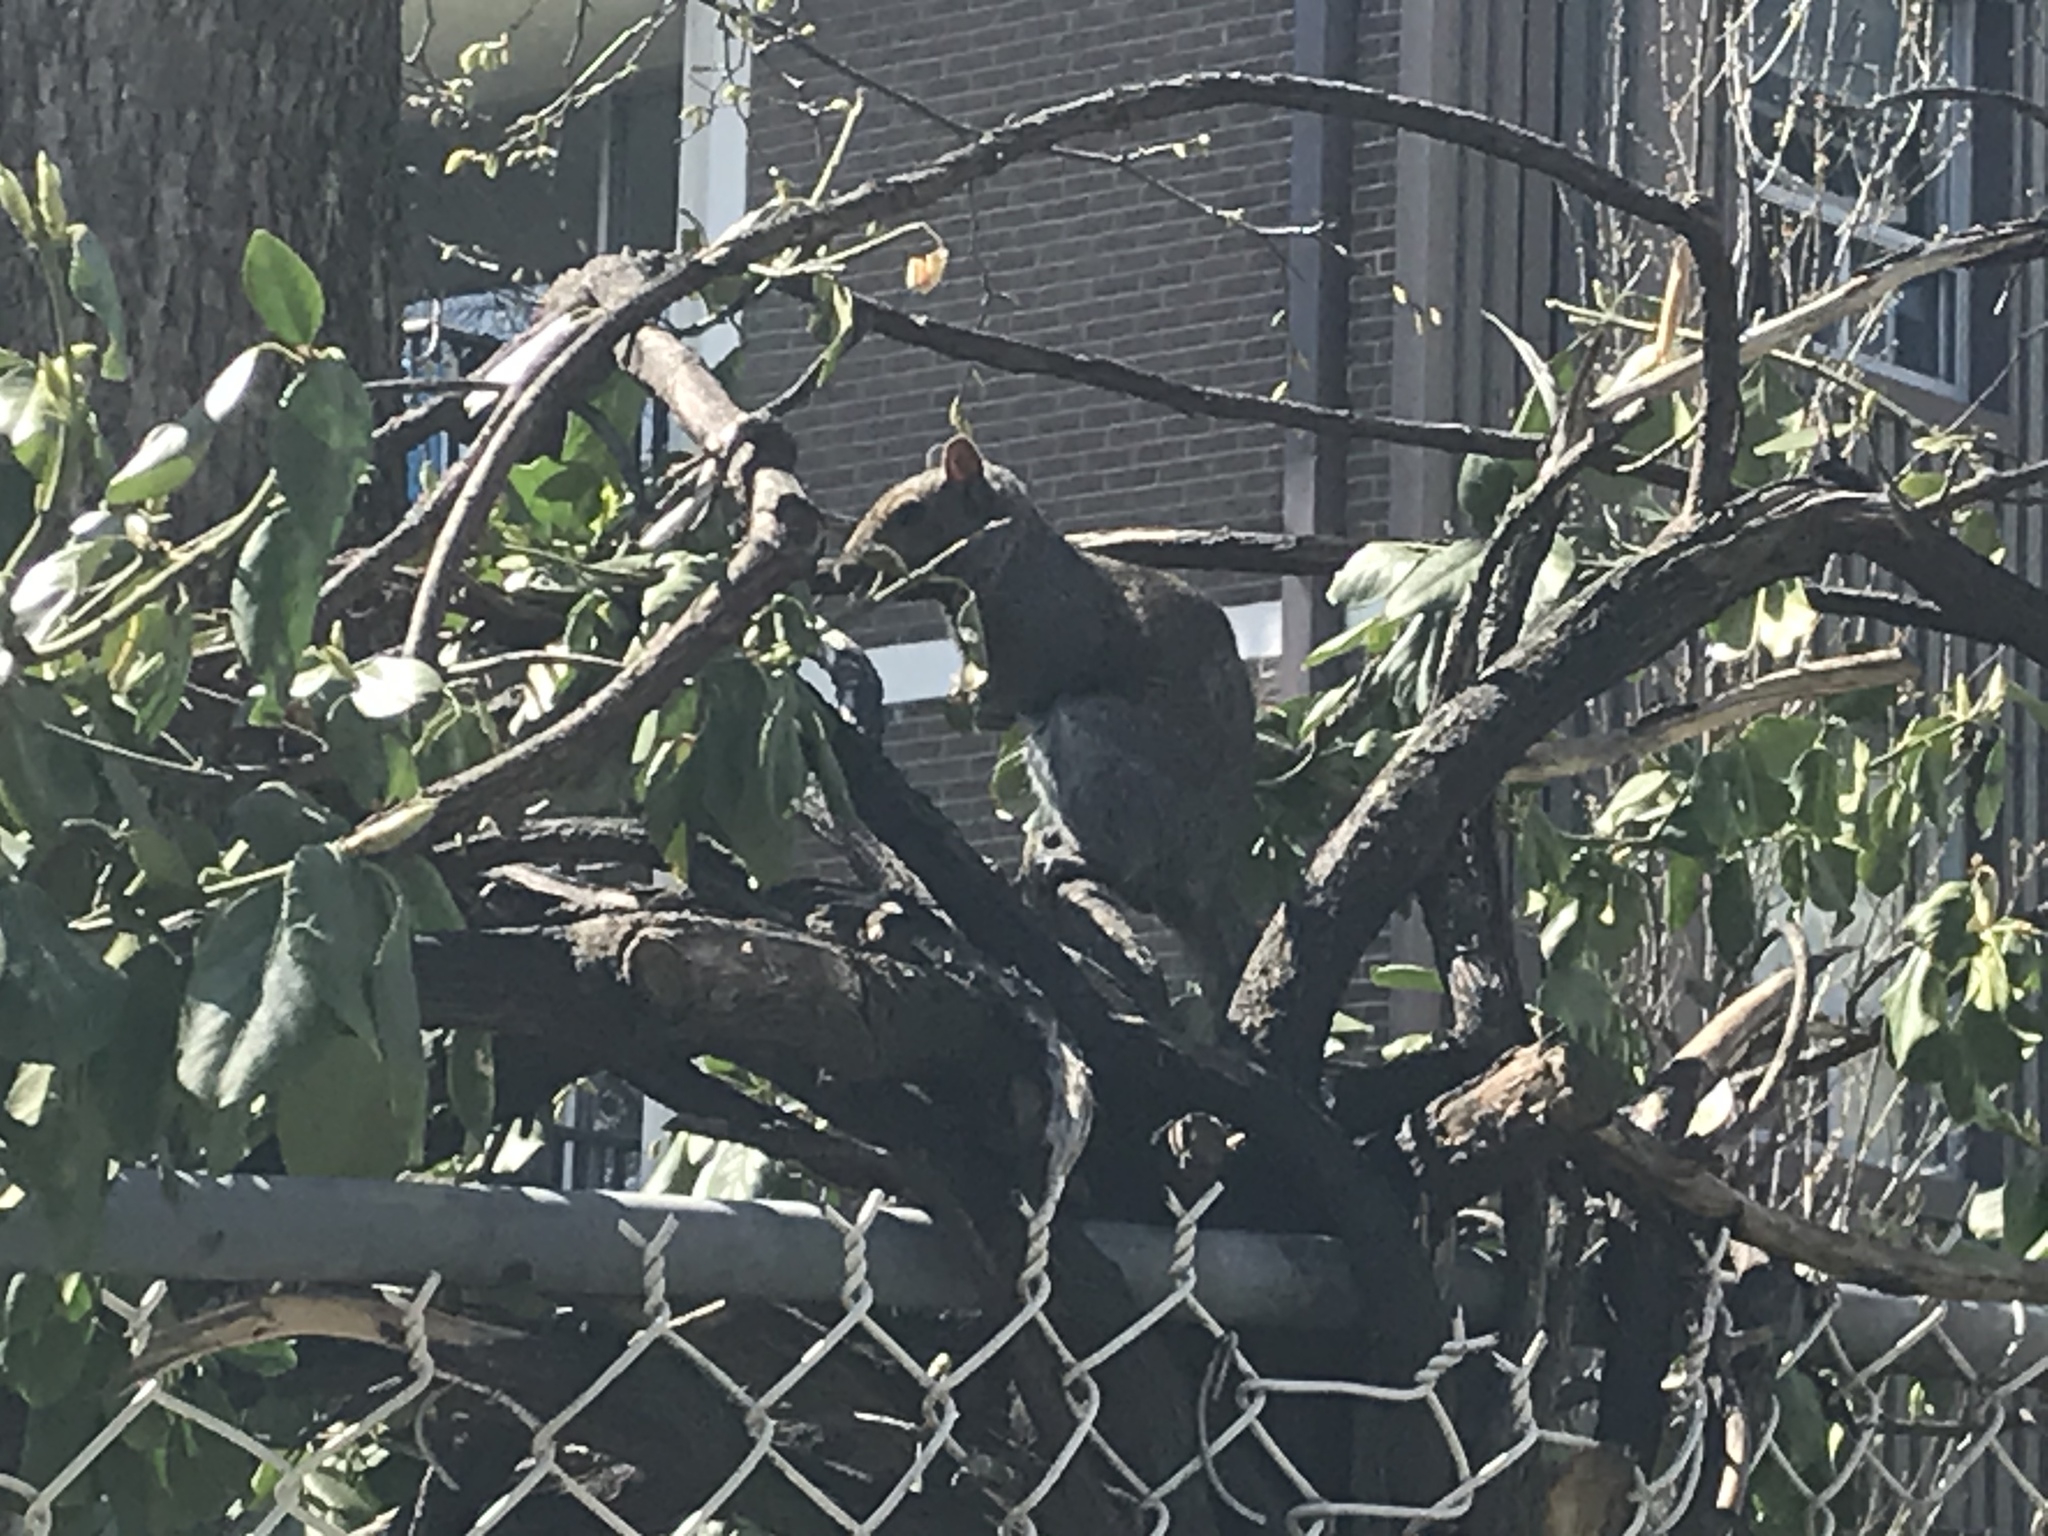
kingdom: Animalia
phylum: Chordata
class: Mammalia
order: Rodentia
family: Sciuridae
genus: Sciurus
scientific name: Sciurus carolinensis
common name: Eastern gray squirrel
